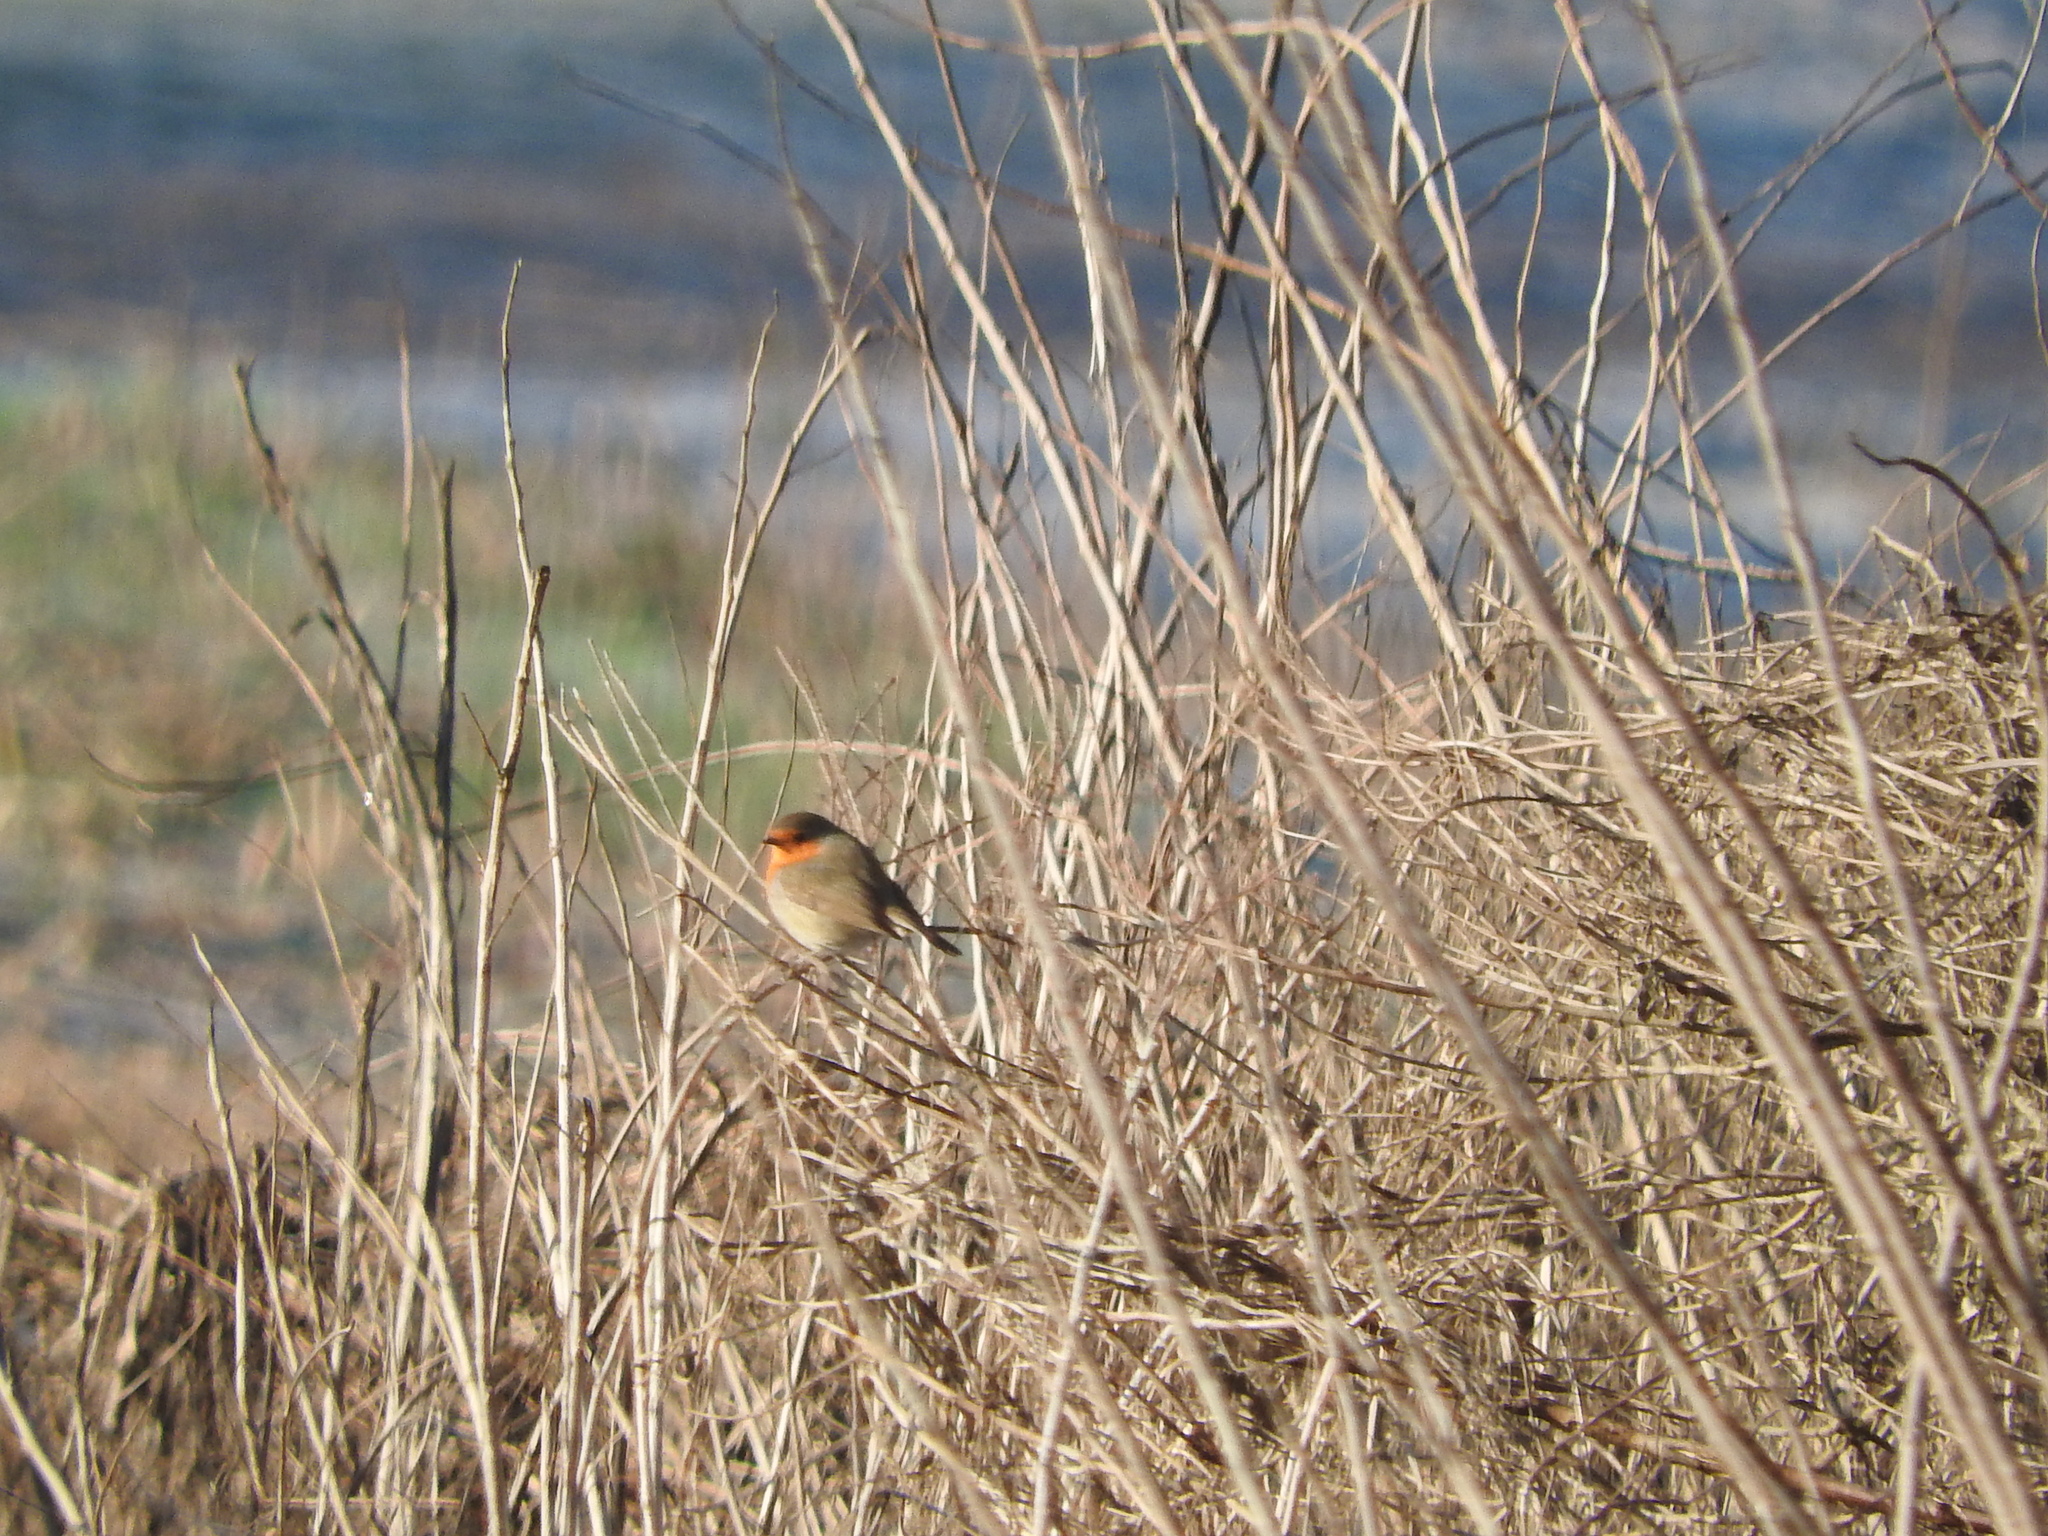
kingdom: Animalia
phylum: Chordata
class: Aves
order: Passeriformes
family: Muscicapidae
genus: Erithacus
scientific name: Erithacus rubecula
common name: European robin
